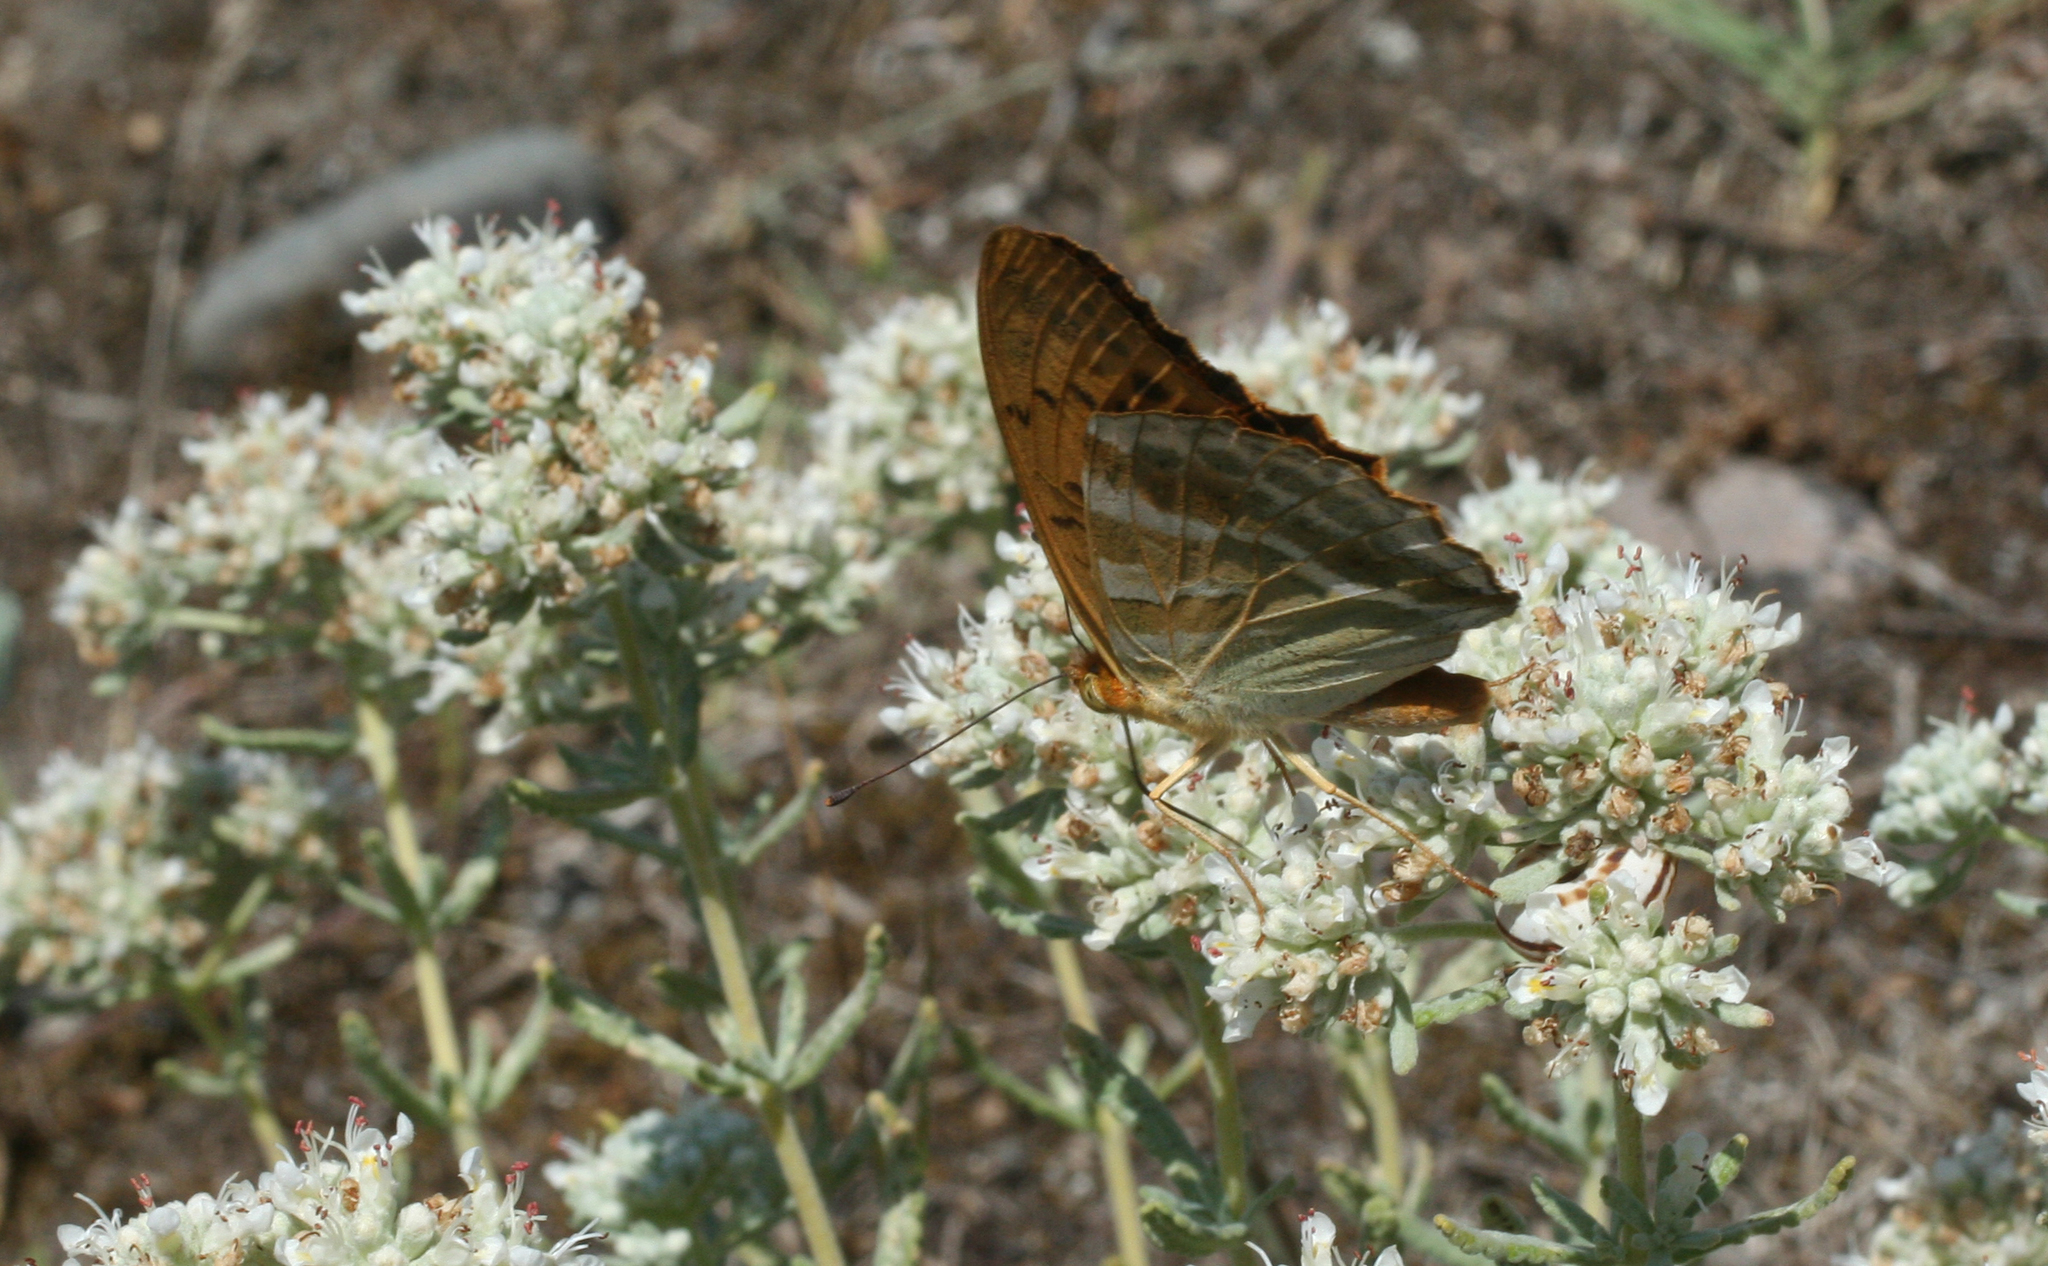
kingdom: Animalia
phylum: Arthropoda
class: Insecta
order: Lepidoptera
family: Nymphalidae
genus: Argynnis
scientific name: Argynnis paphia
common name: Silver-washed fritillary
